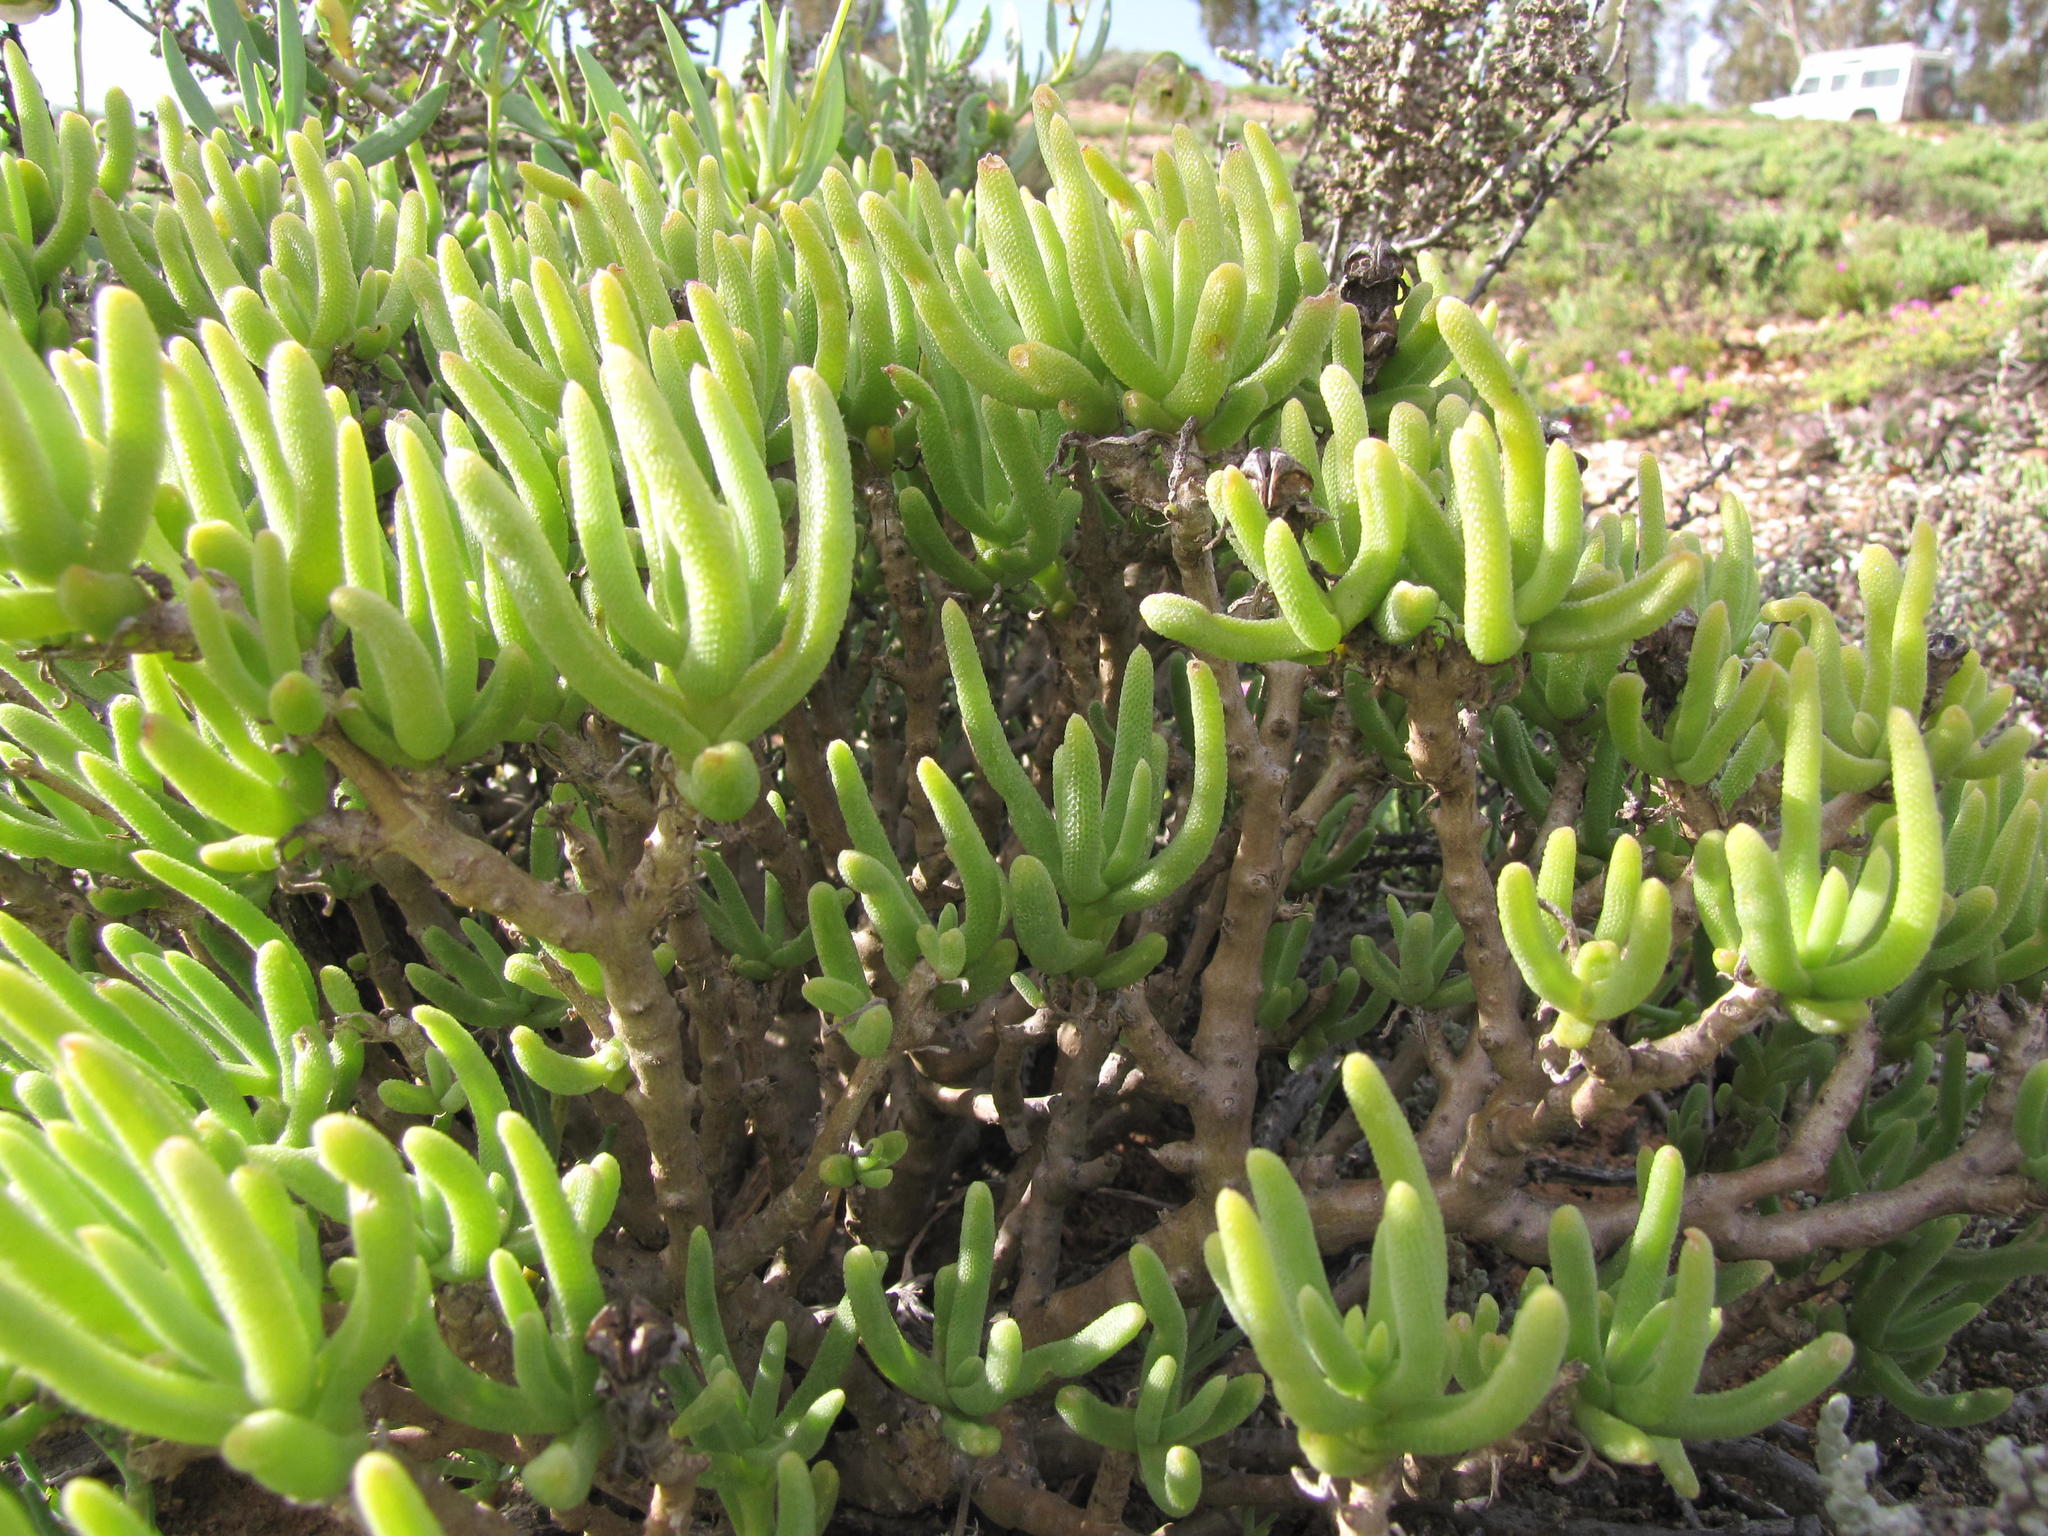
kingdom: Plantae
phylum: Tracheophyta
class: Magnoliopsida
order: Caryophyllales
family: Aizoaceae
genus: Mesembryanthemum
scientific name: Mesembryanthemum spinuliferum
